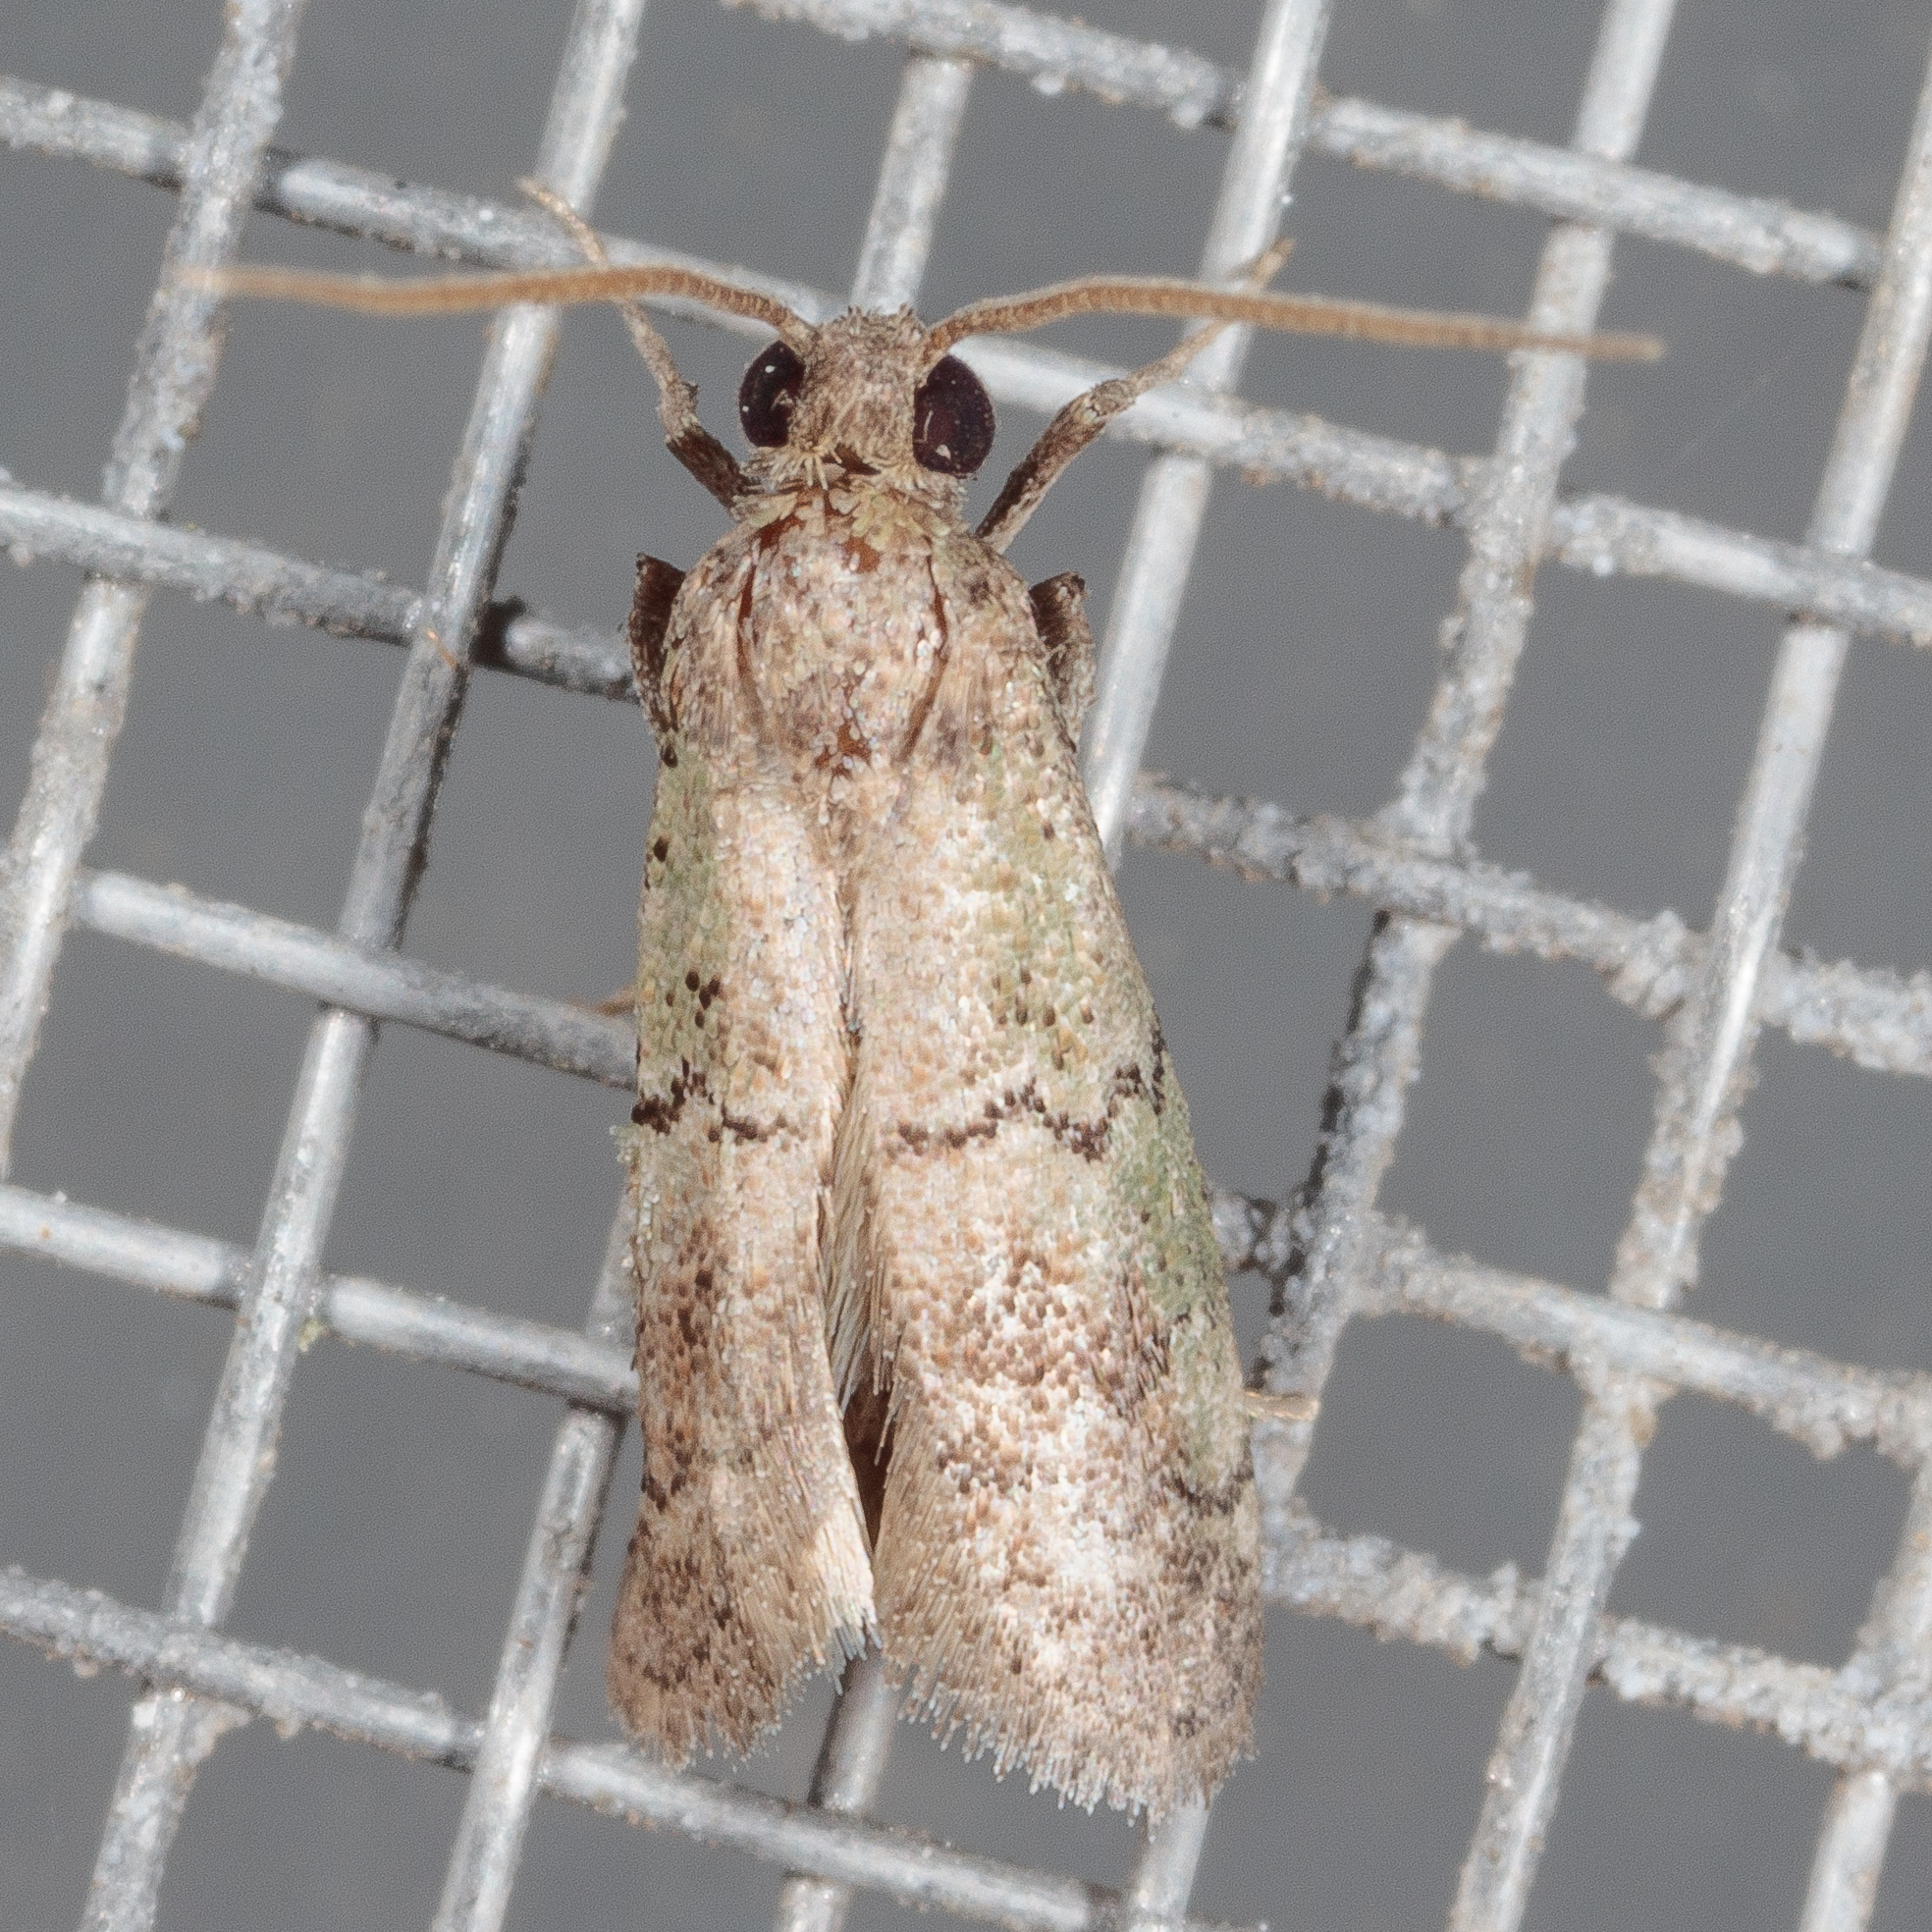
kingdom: Animalia
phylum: Arthropoda
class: Insecta
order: Lepidoptera
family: Pyralidae
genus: Cacotherapia
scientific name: Cacotherapia flexilinealis
